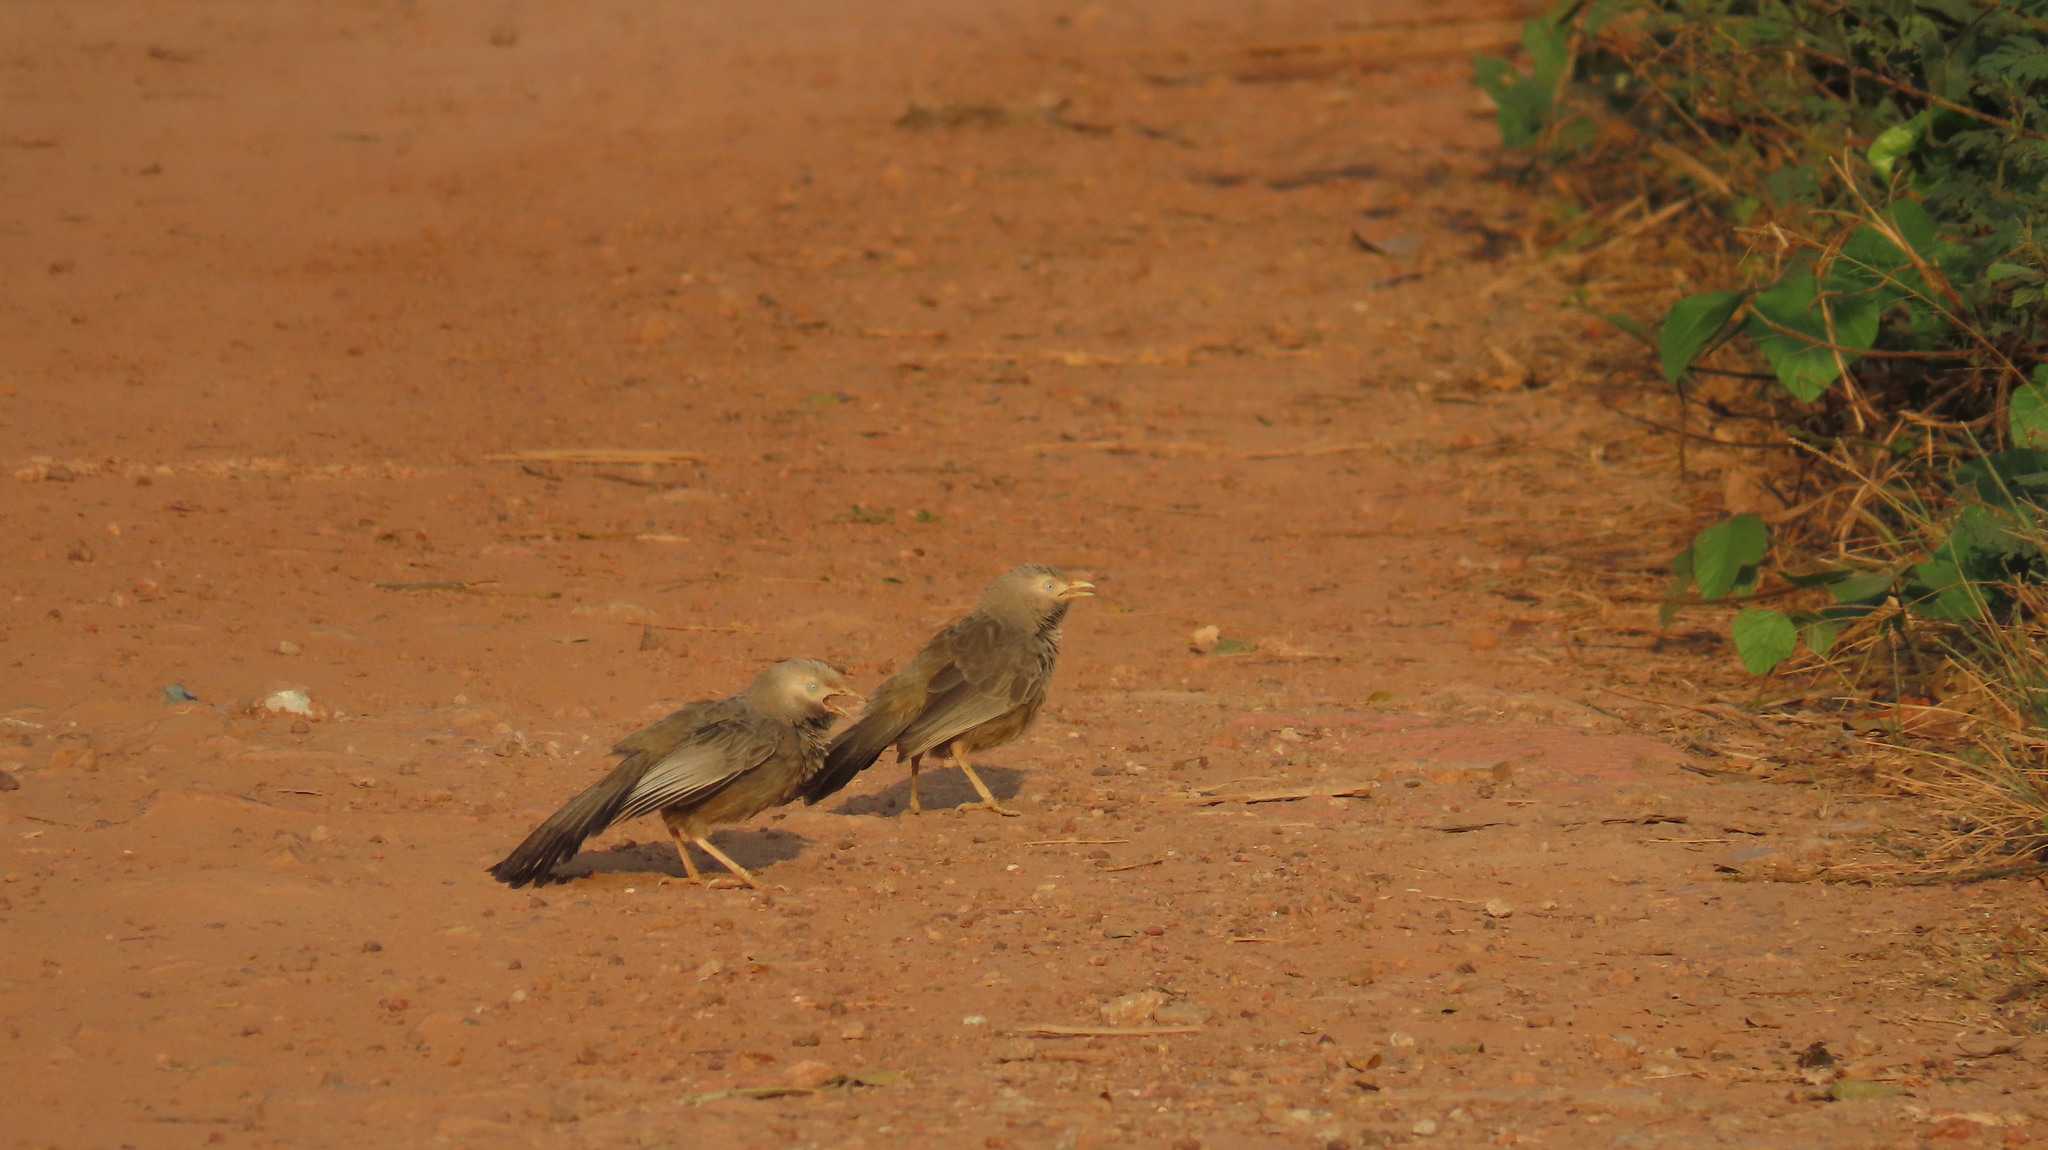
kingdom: Animalia
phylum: Chordata
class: Aves
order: Passeriformes
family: Leiothrichidae
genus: Turdoides
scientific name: Turdoides affinis
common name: Yellow-billed babbler
